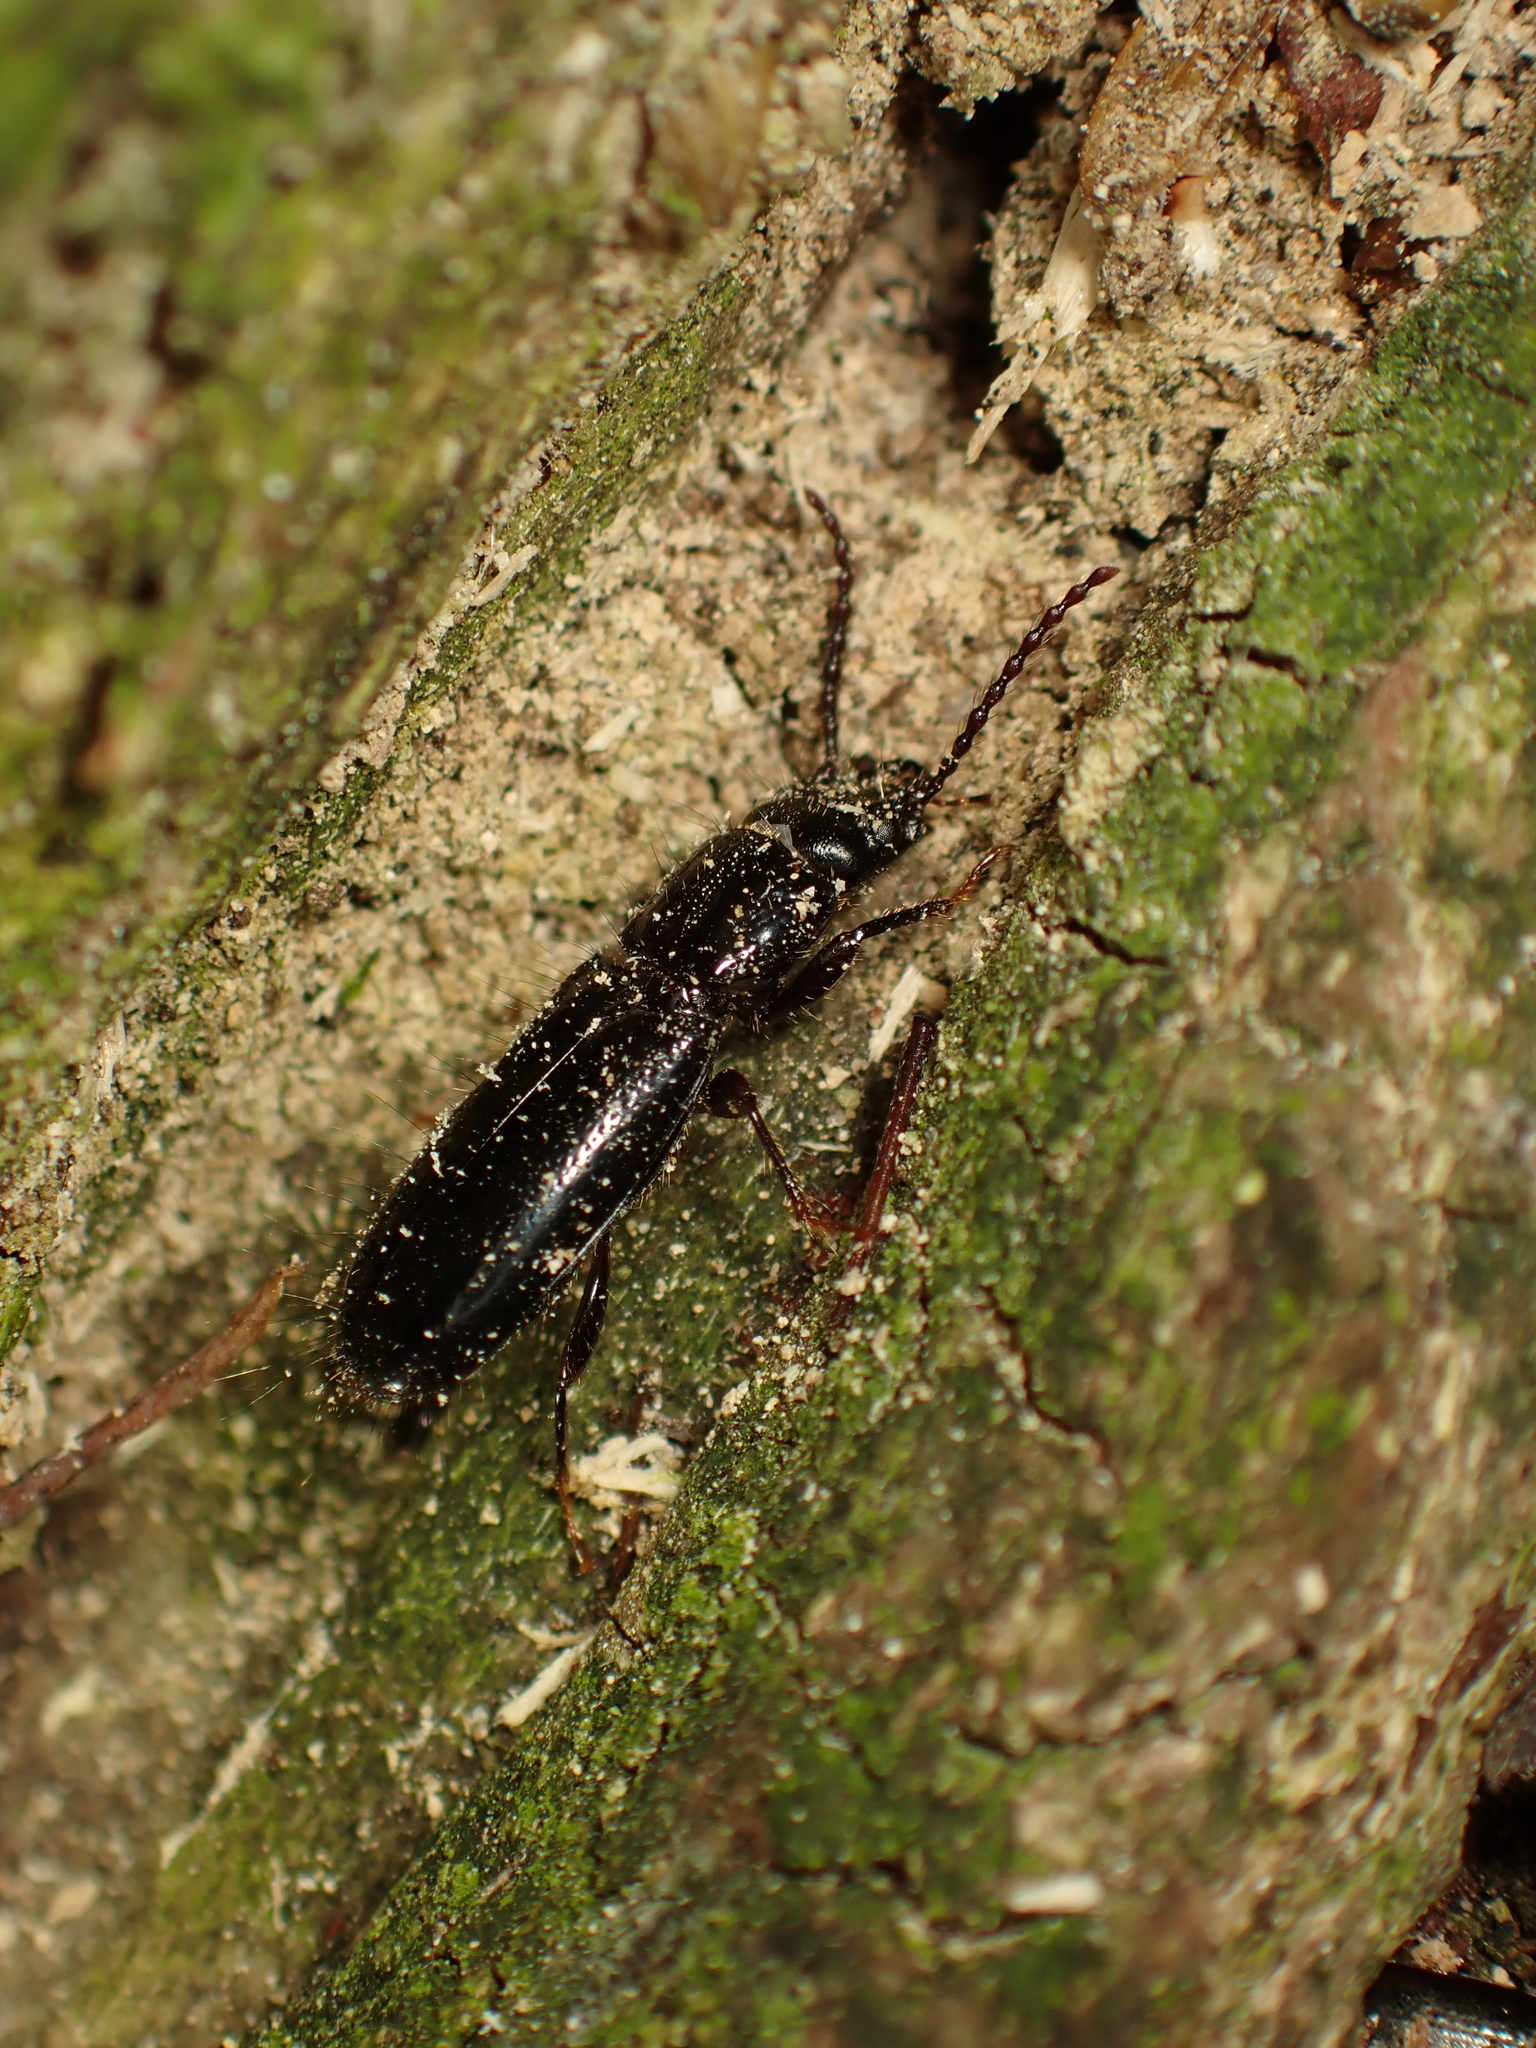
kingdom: Animalia
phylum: Arthropoda
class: Insecta
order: Coleoptera
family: Chaetosomatidae
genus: Chaetosoma
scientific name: Chaetosoma
